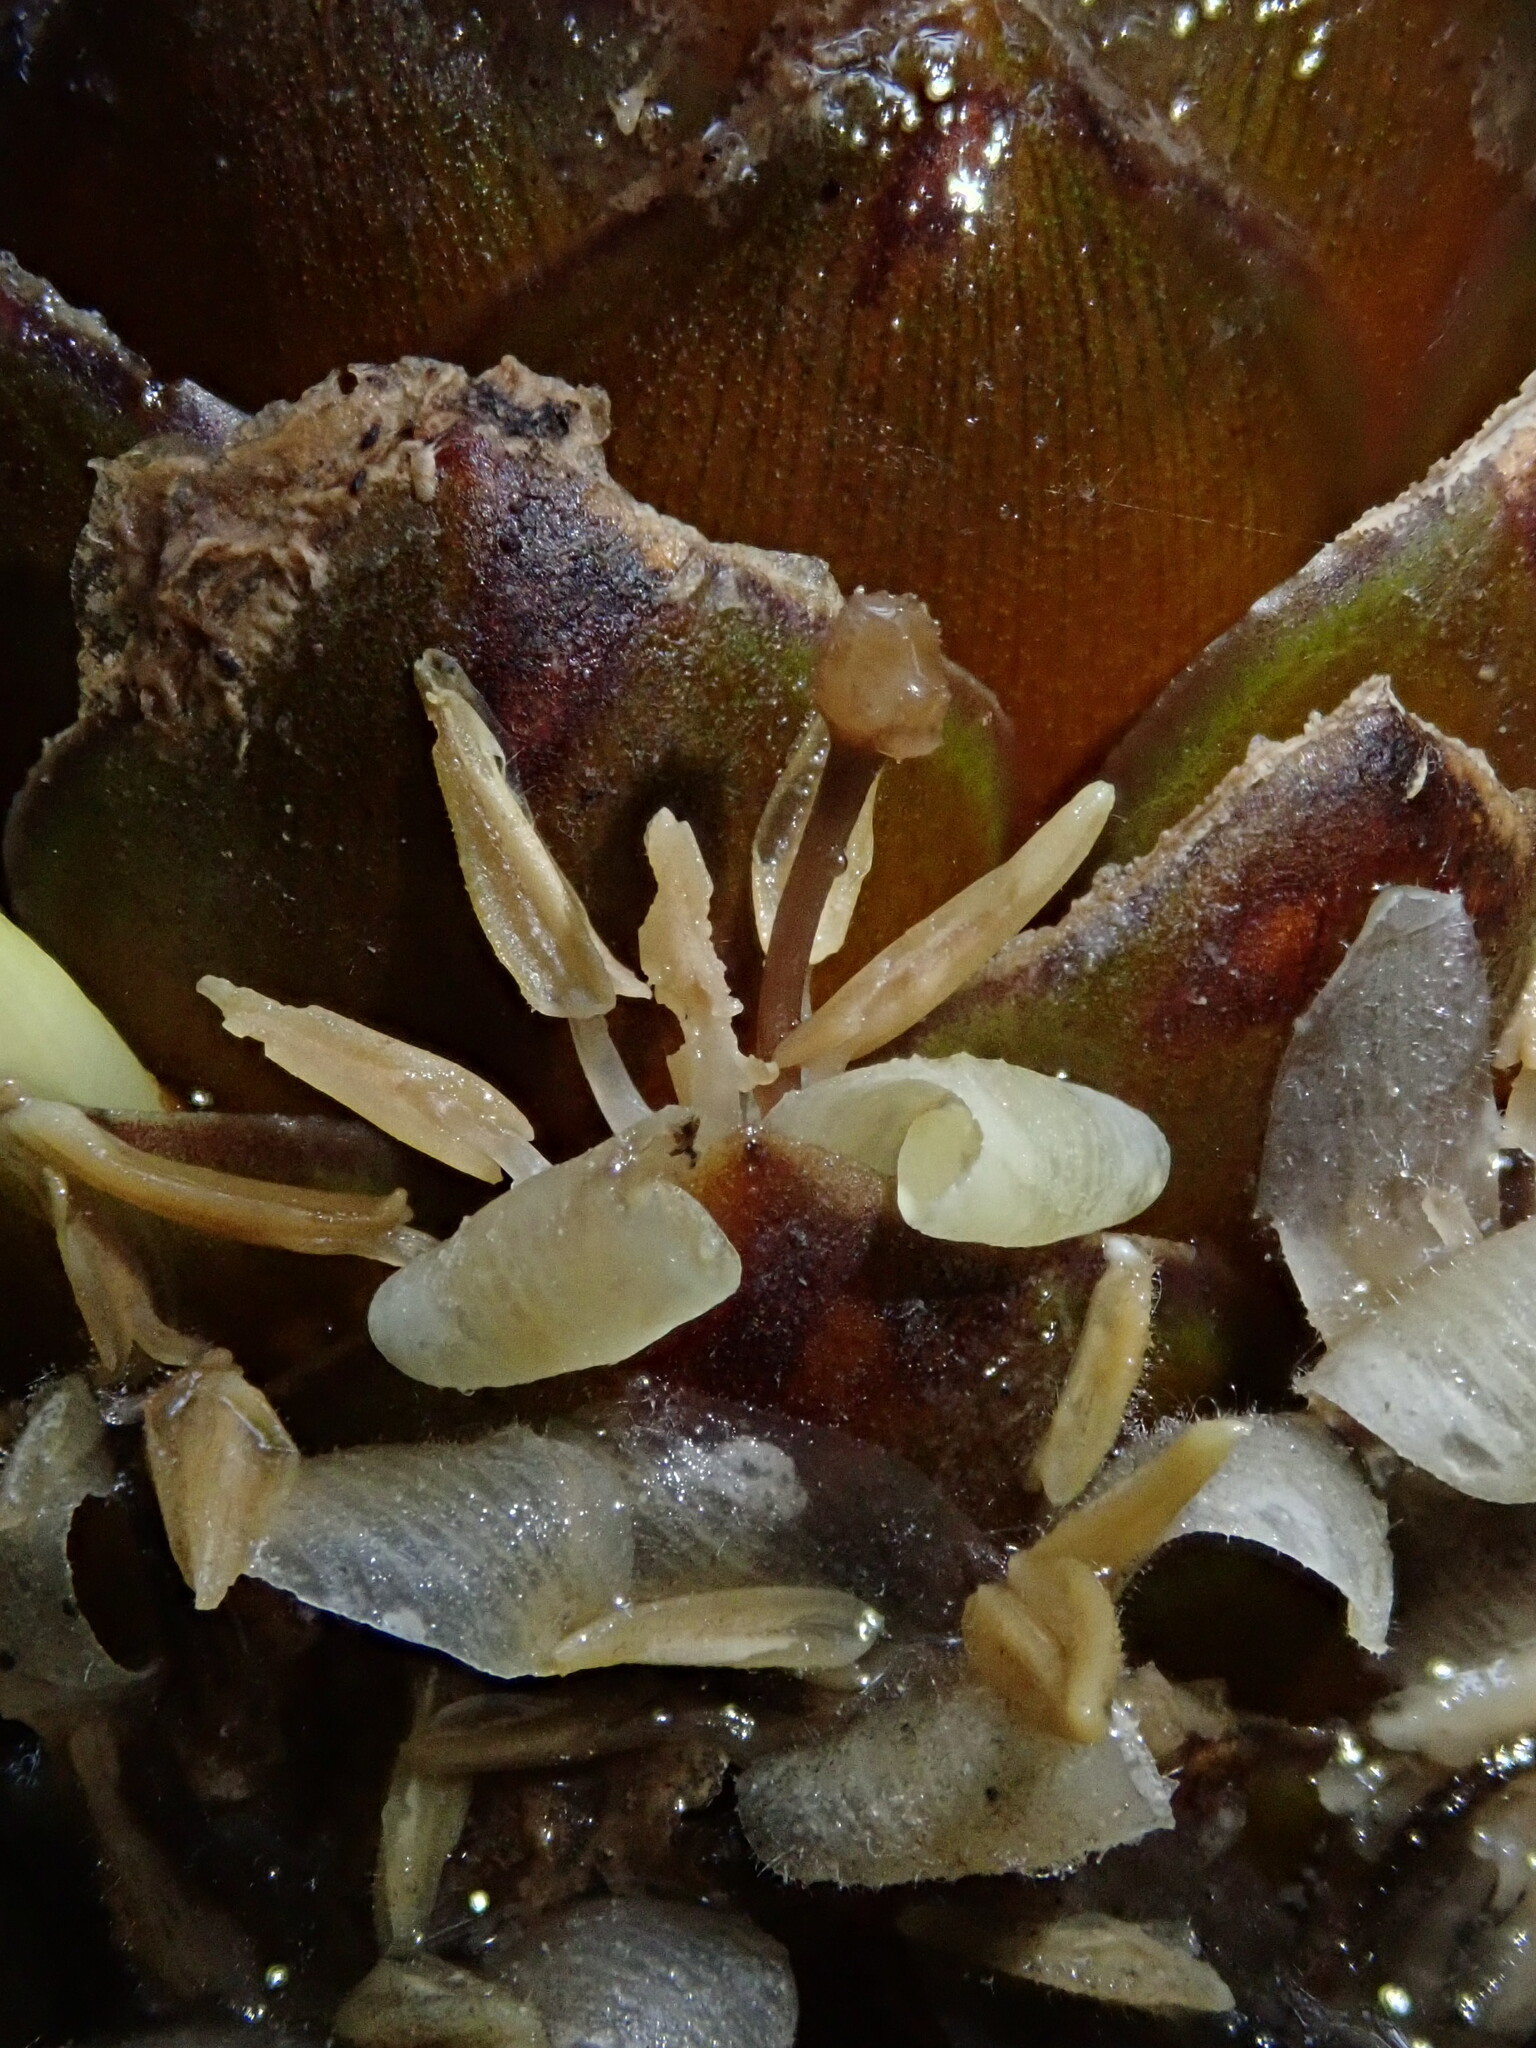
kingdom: Plantae
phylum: Tracheophyta
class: Liliopsida
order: Poales
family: Bromeliaceae
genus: Guzmania
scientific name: Guzmania coriostachya
